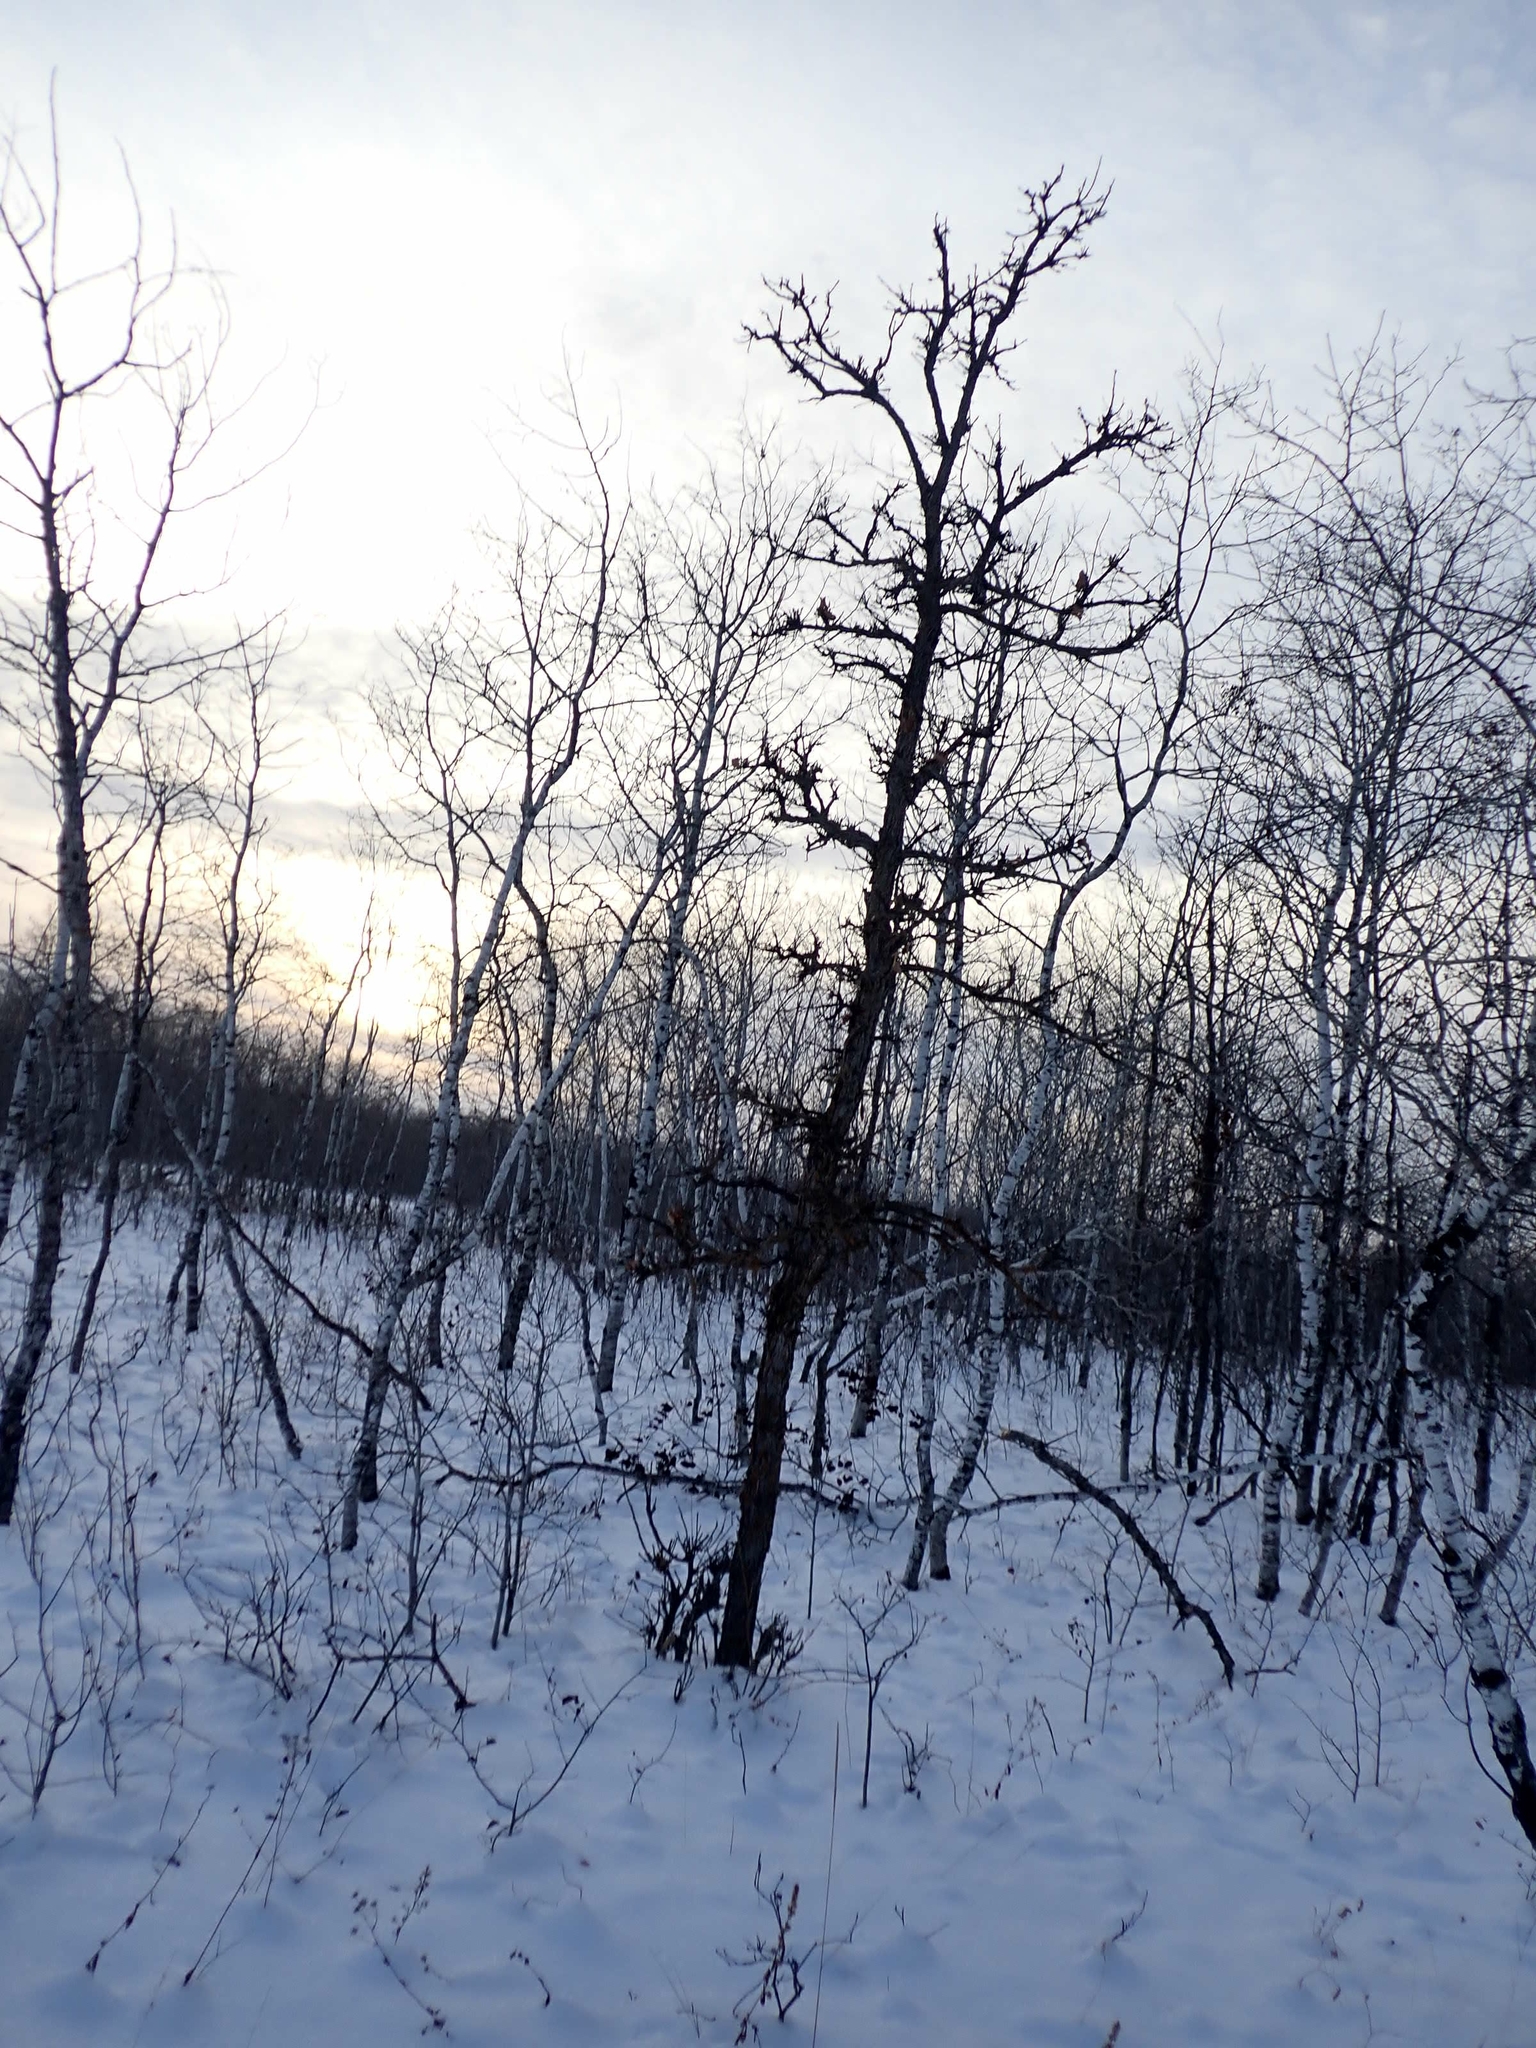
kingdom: Plantae
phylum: Tracheophyta
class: Magnoliopsida
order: Fagales
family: Fagaceae
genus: Quercus
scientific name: Quercus macrocarpa
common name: Bur oak
